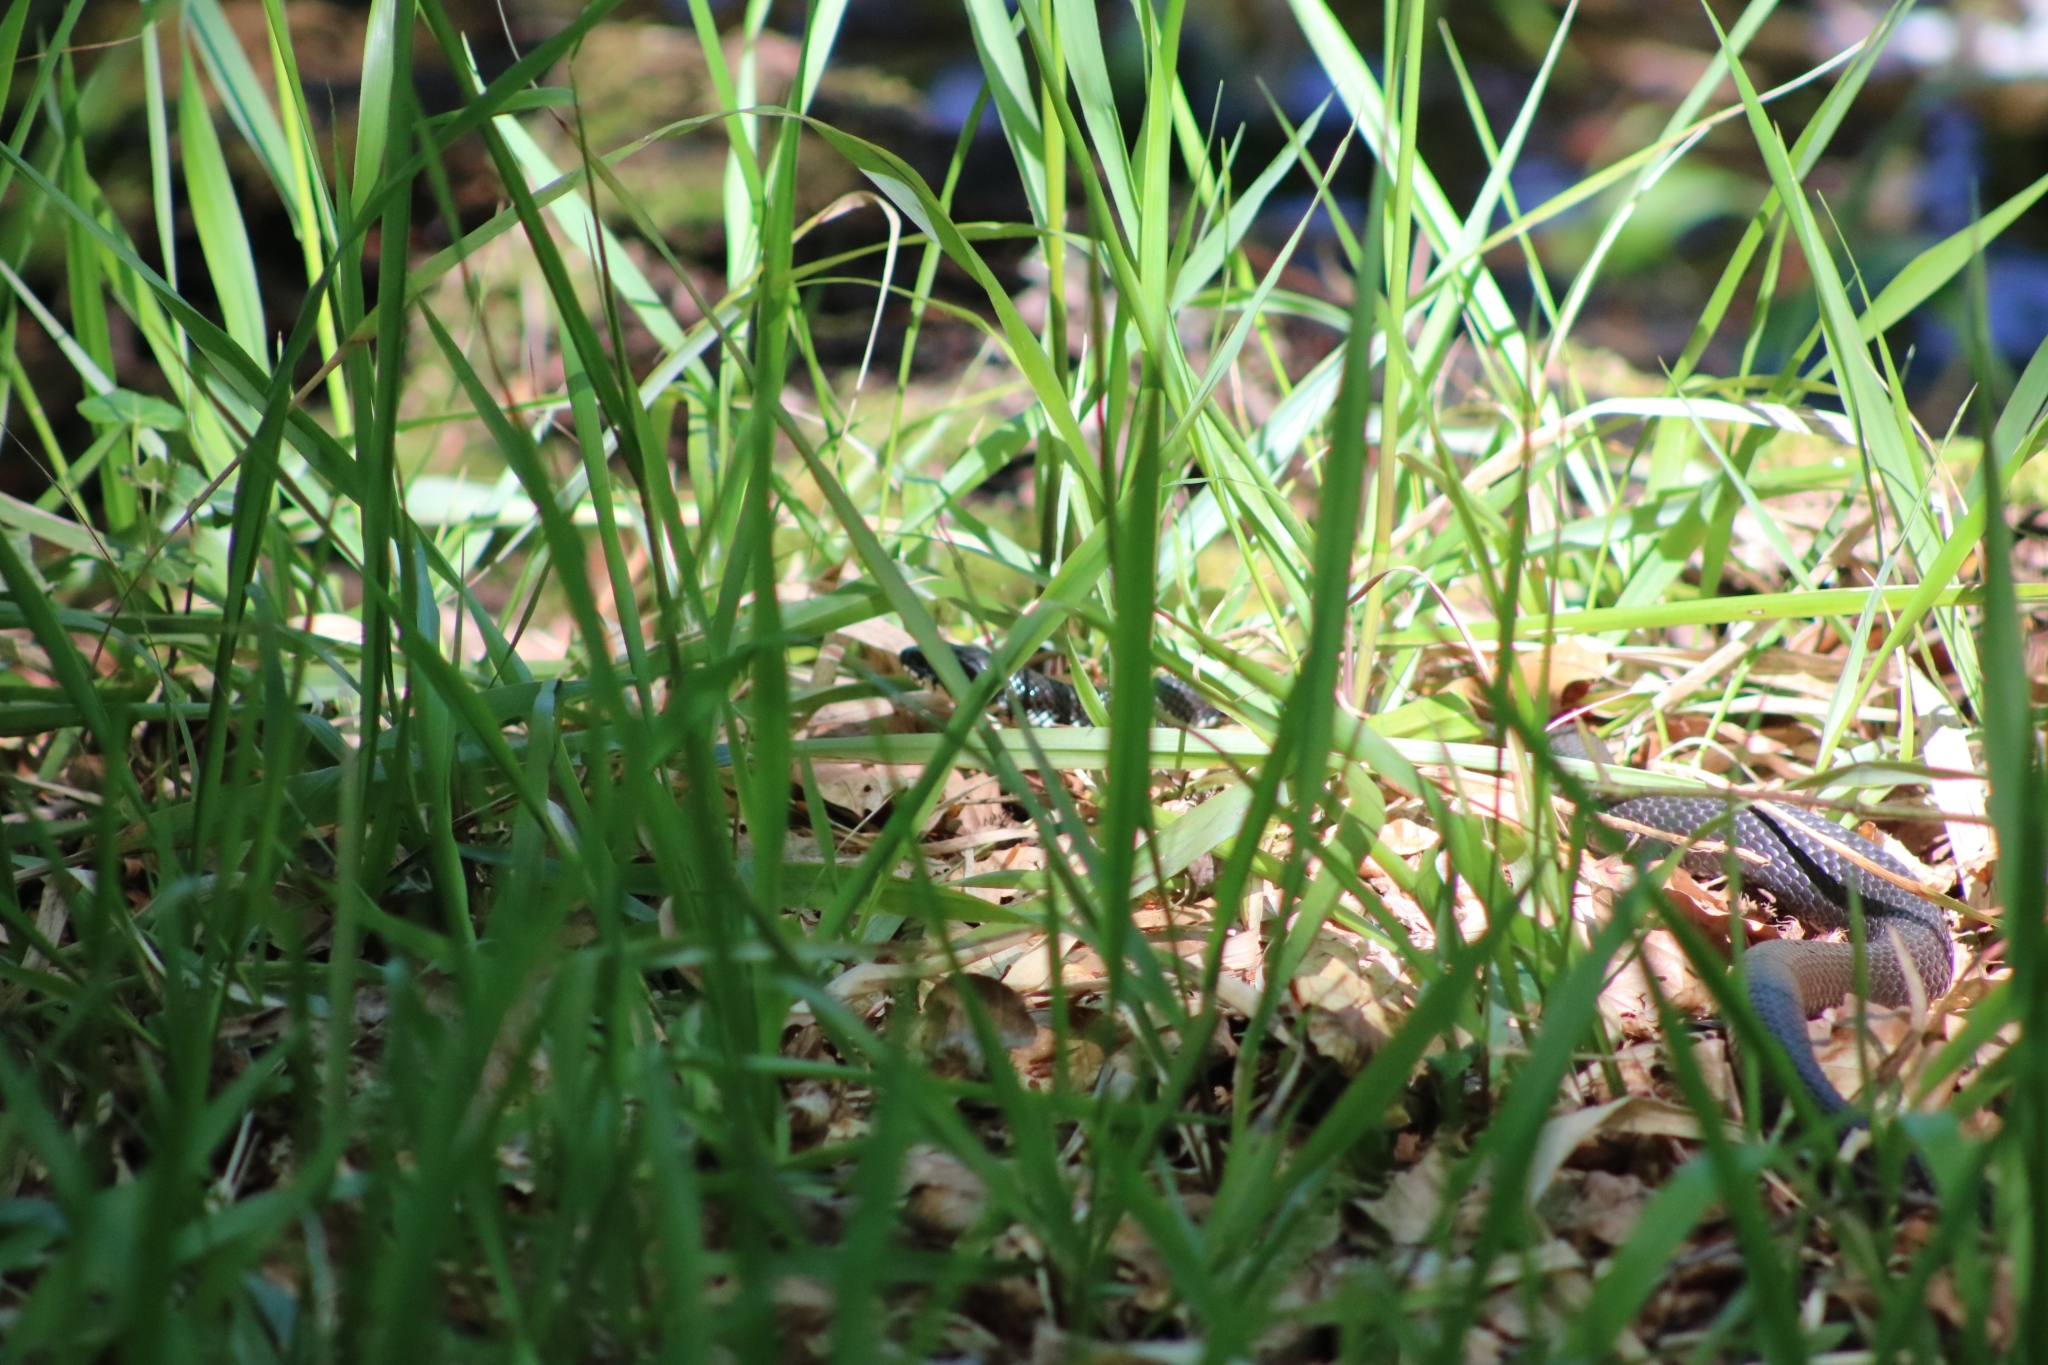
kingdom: Animalia
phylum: Chordata
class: Squamata
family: Colubridae
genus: Natrix
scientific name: Natrix natrix
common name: Grass snake
